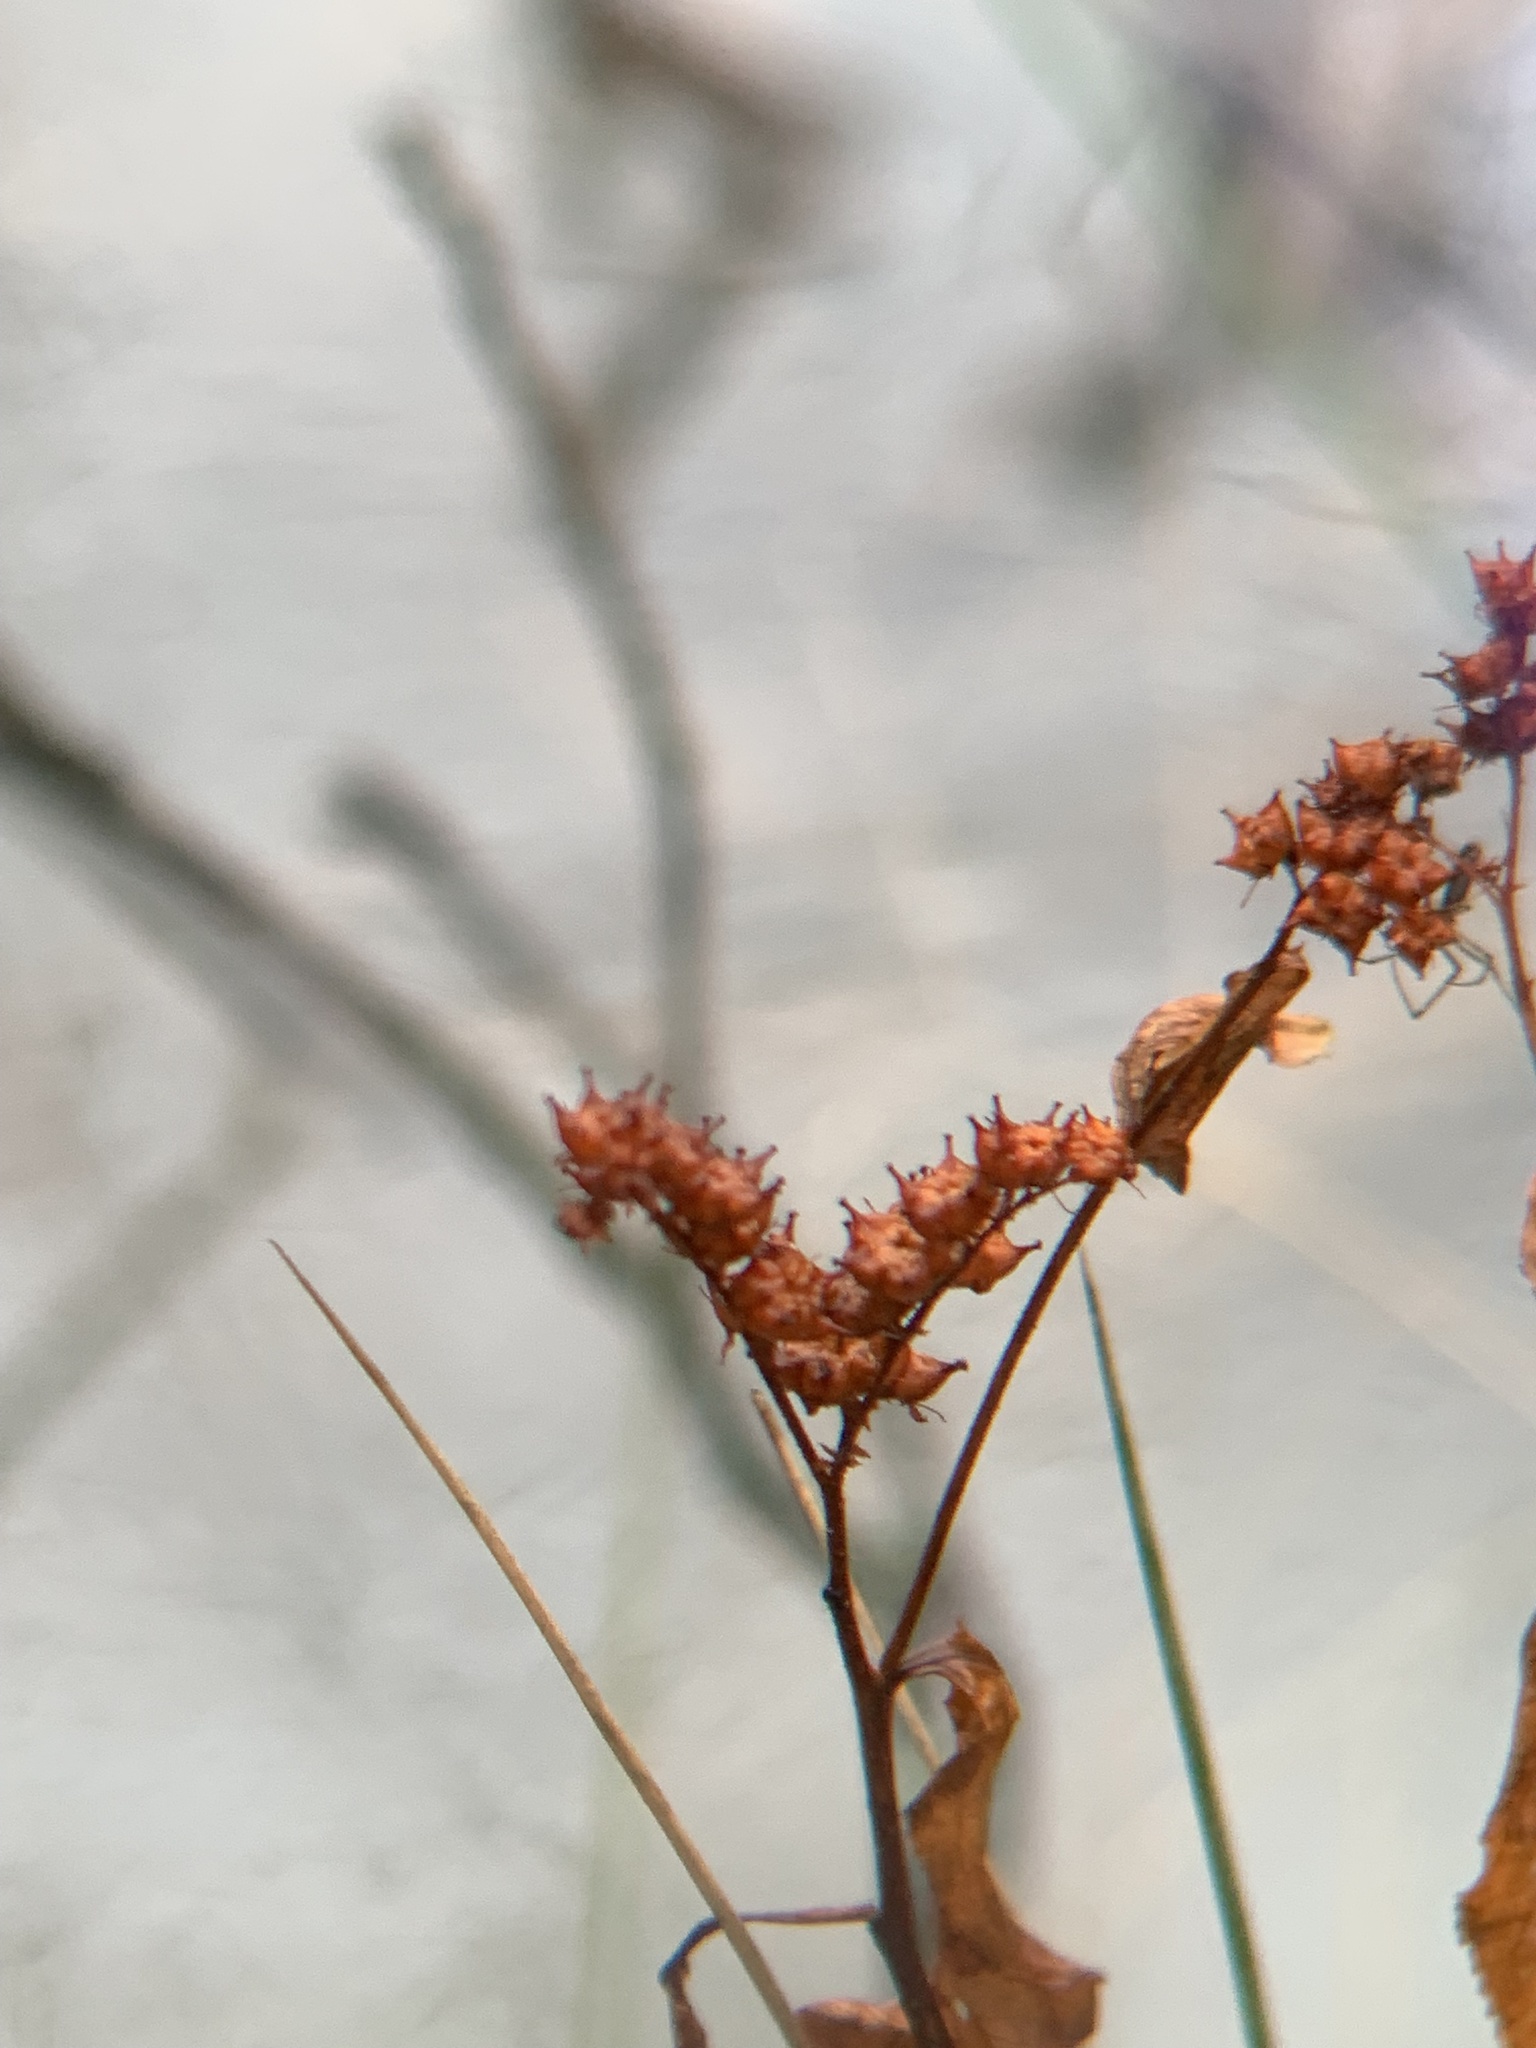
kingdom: Plantae
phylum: Tracheophyta
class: Magnoliopsida
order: Saxifragales
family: Penthoraceae
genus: Penthorum
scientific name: Penthorum sedoides
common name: Ditch stonecrop
